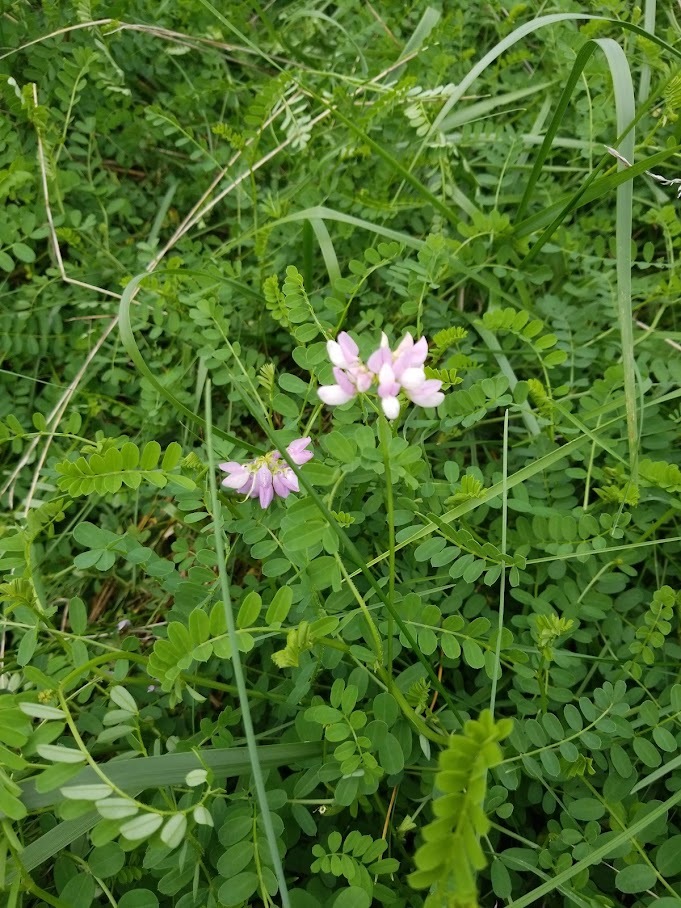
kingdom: Plantae
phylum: Tracheophyta
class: Magnoliopsida
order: Fabales
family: Fabaceae
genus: Coronilla
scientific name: Coronilla varia
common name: Crownvetch
